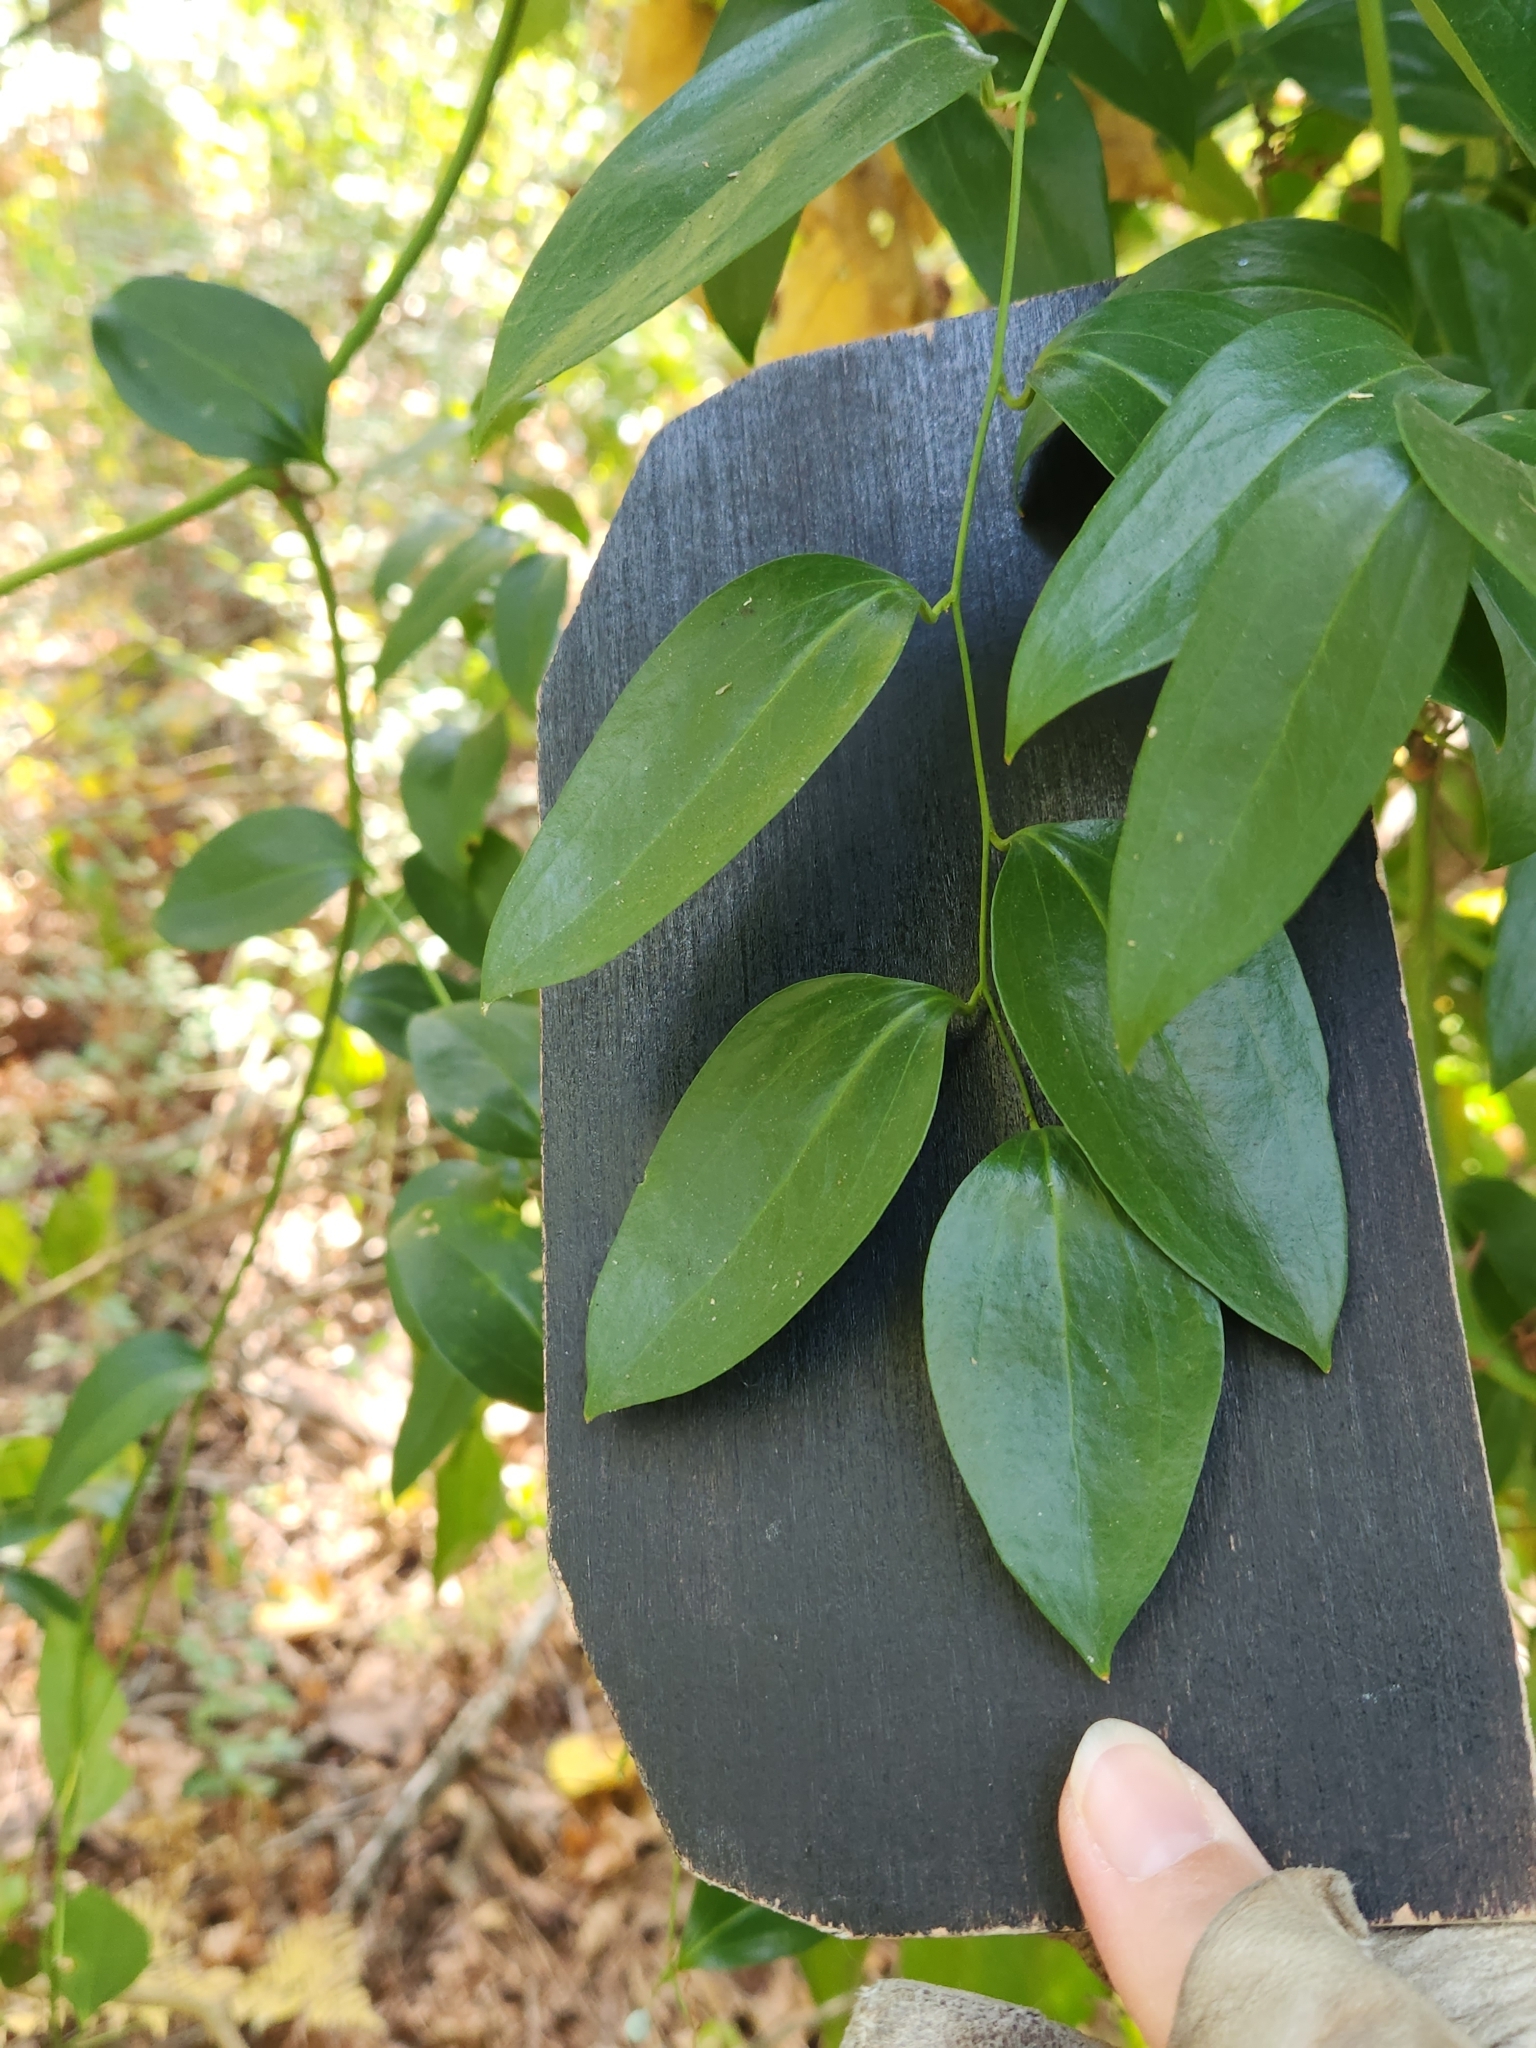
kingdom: Plantae
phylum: Tracheophyta
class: Liliopsida
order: Liliales
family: Smilacaceae
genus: Smilax
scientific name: Smilax maritima
